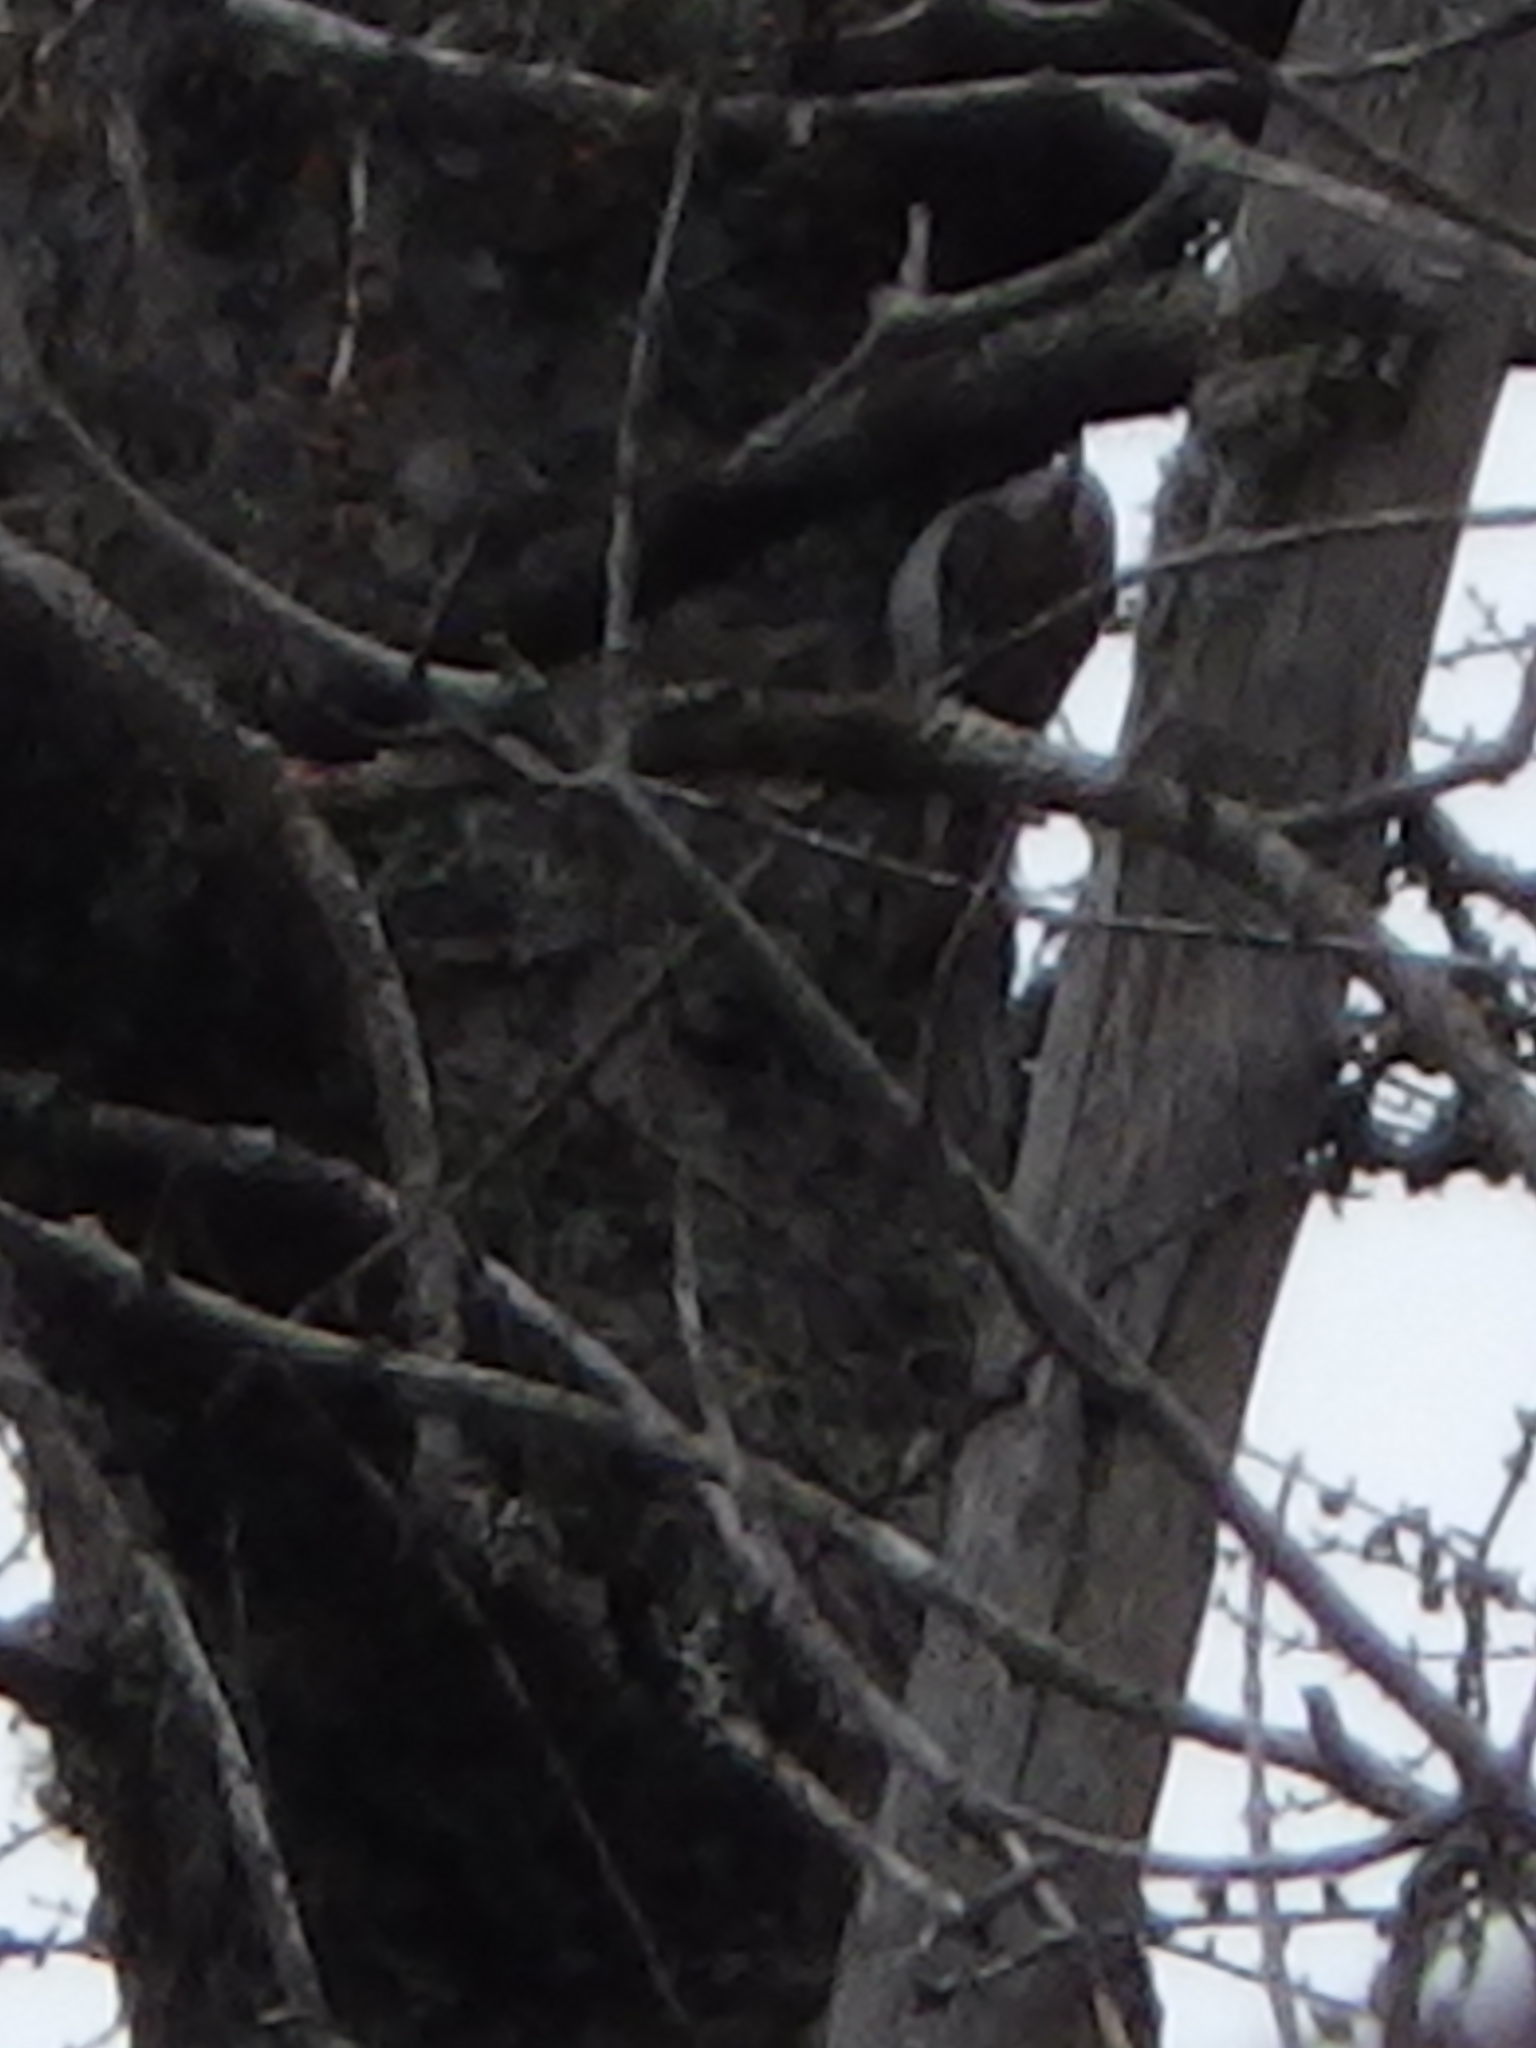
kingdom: Animalia
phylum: Chordata
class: Aves
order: Passeriformes
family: Certhiidae
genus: Certhia
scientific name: Certhia americana
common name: Brown creeper
